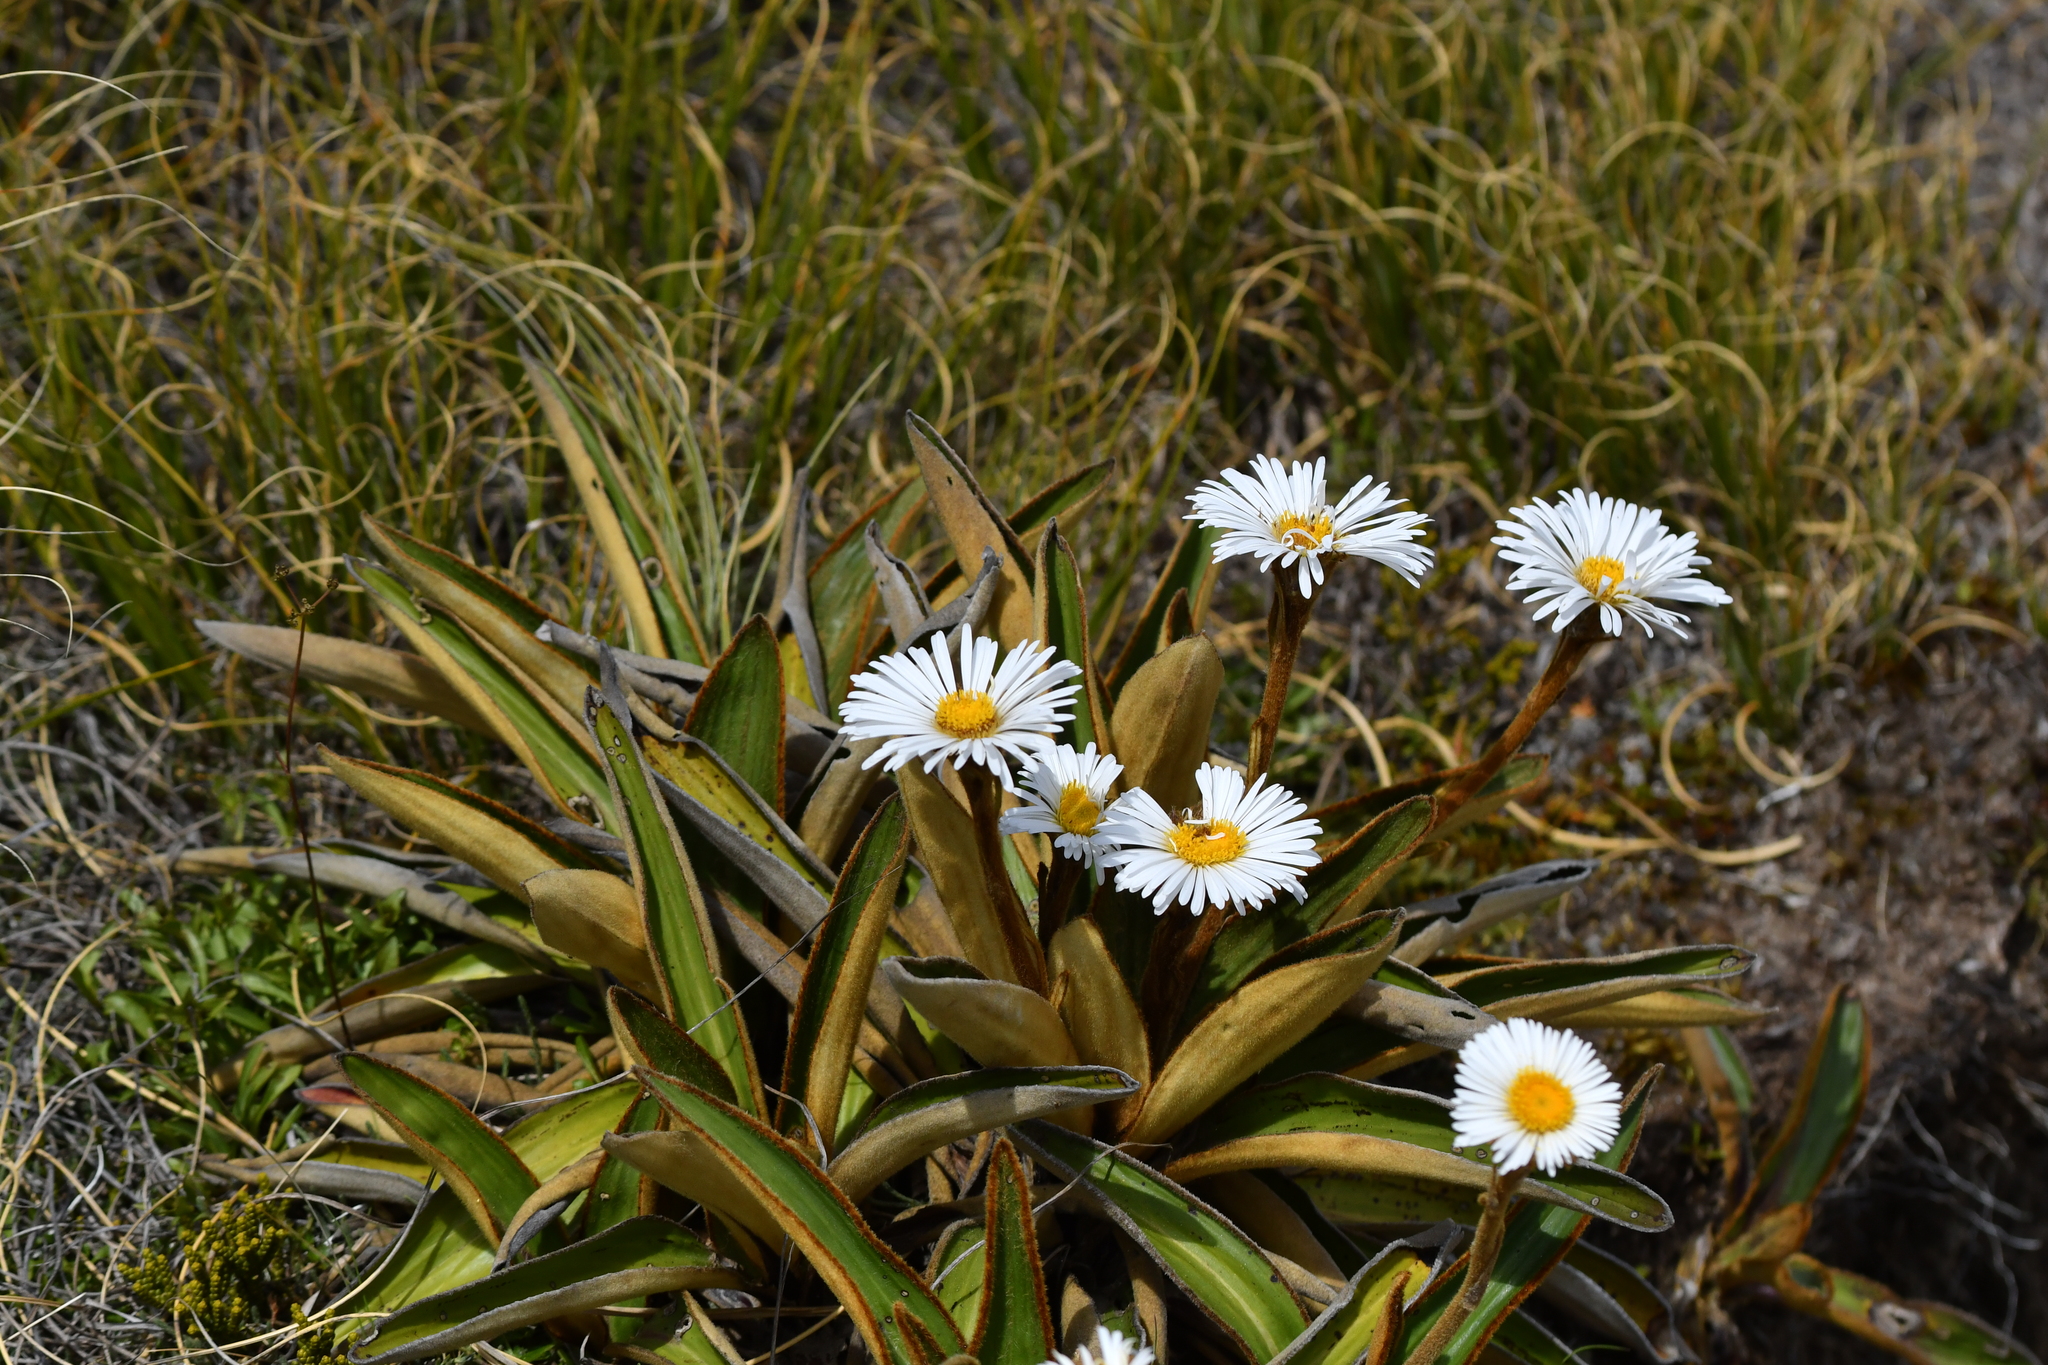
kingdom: Plantae
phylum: Tracheophyta
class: Magnoliopsida
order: Asterales
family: Asteraceae
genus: Celmisia
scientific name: Celmisia traversii
